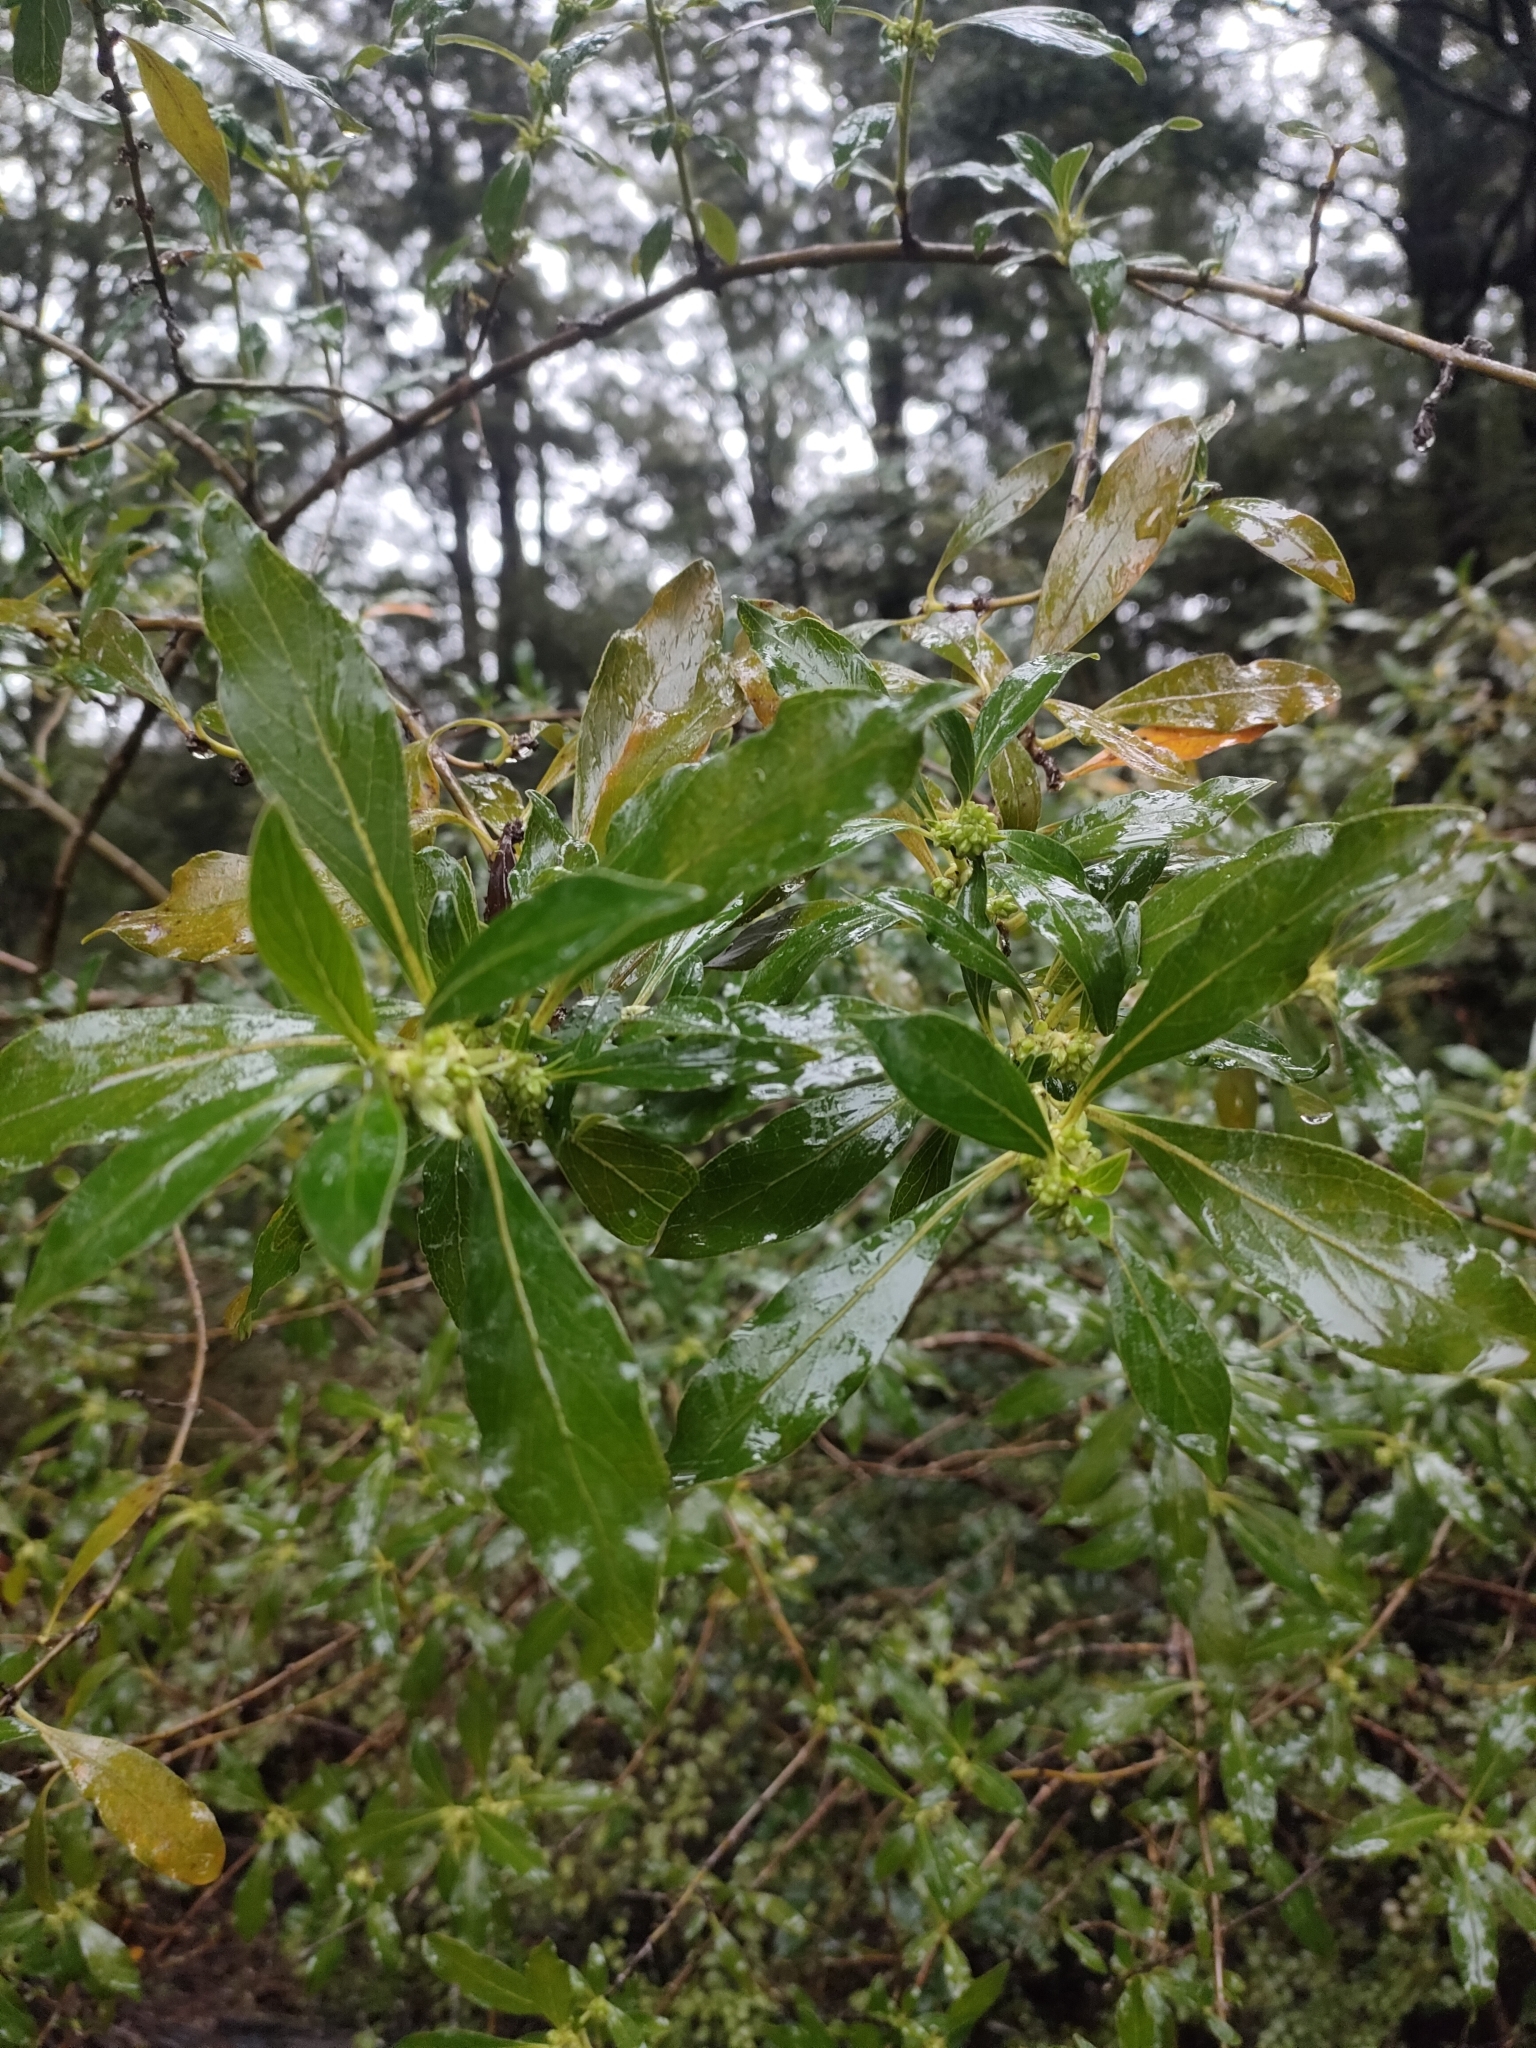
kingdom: Plantae
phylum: Tracheophyta
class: Magnoliopsida
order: Gentianales
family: Rubiaceae
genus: Coprosma
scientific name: Coprosma robusta
